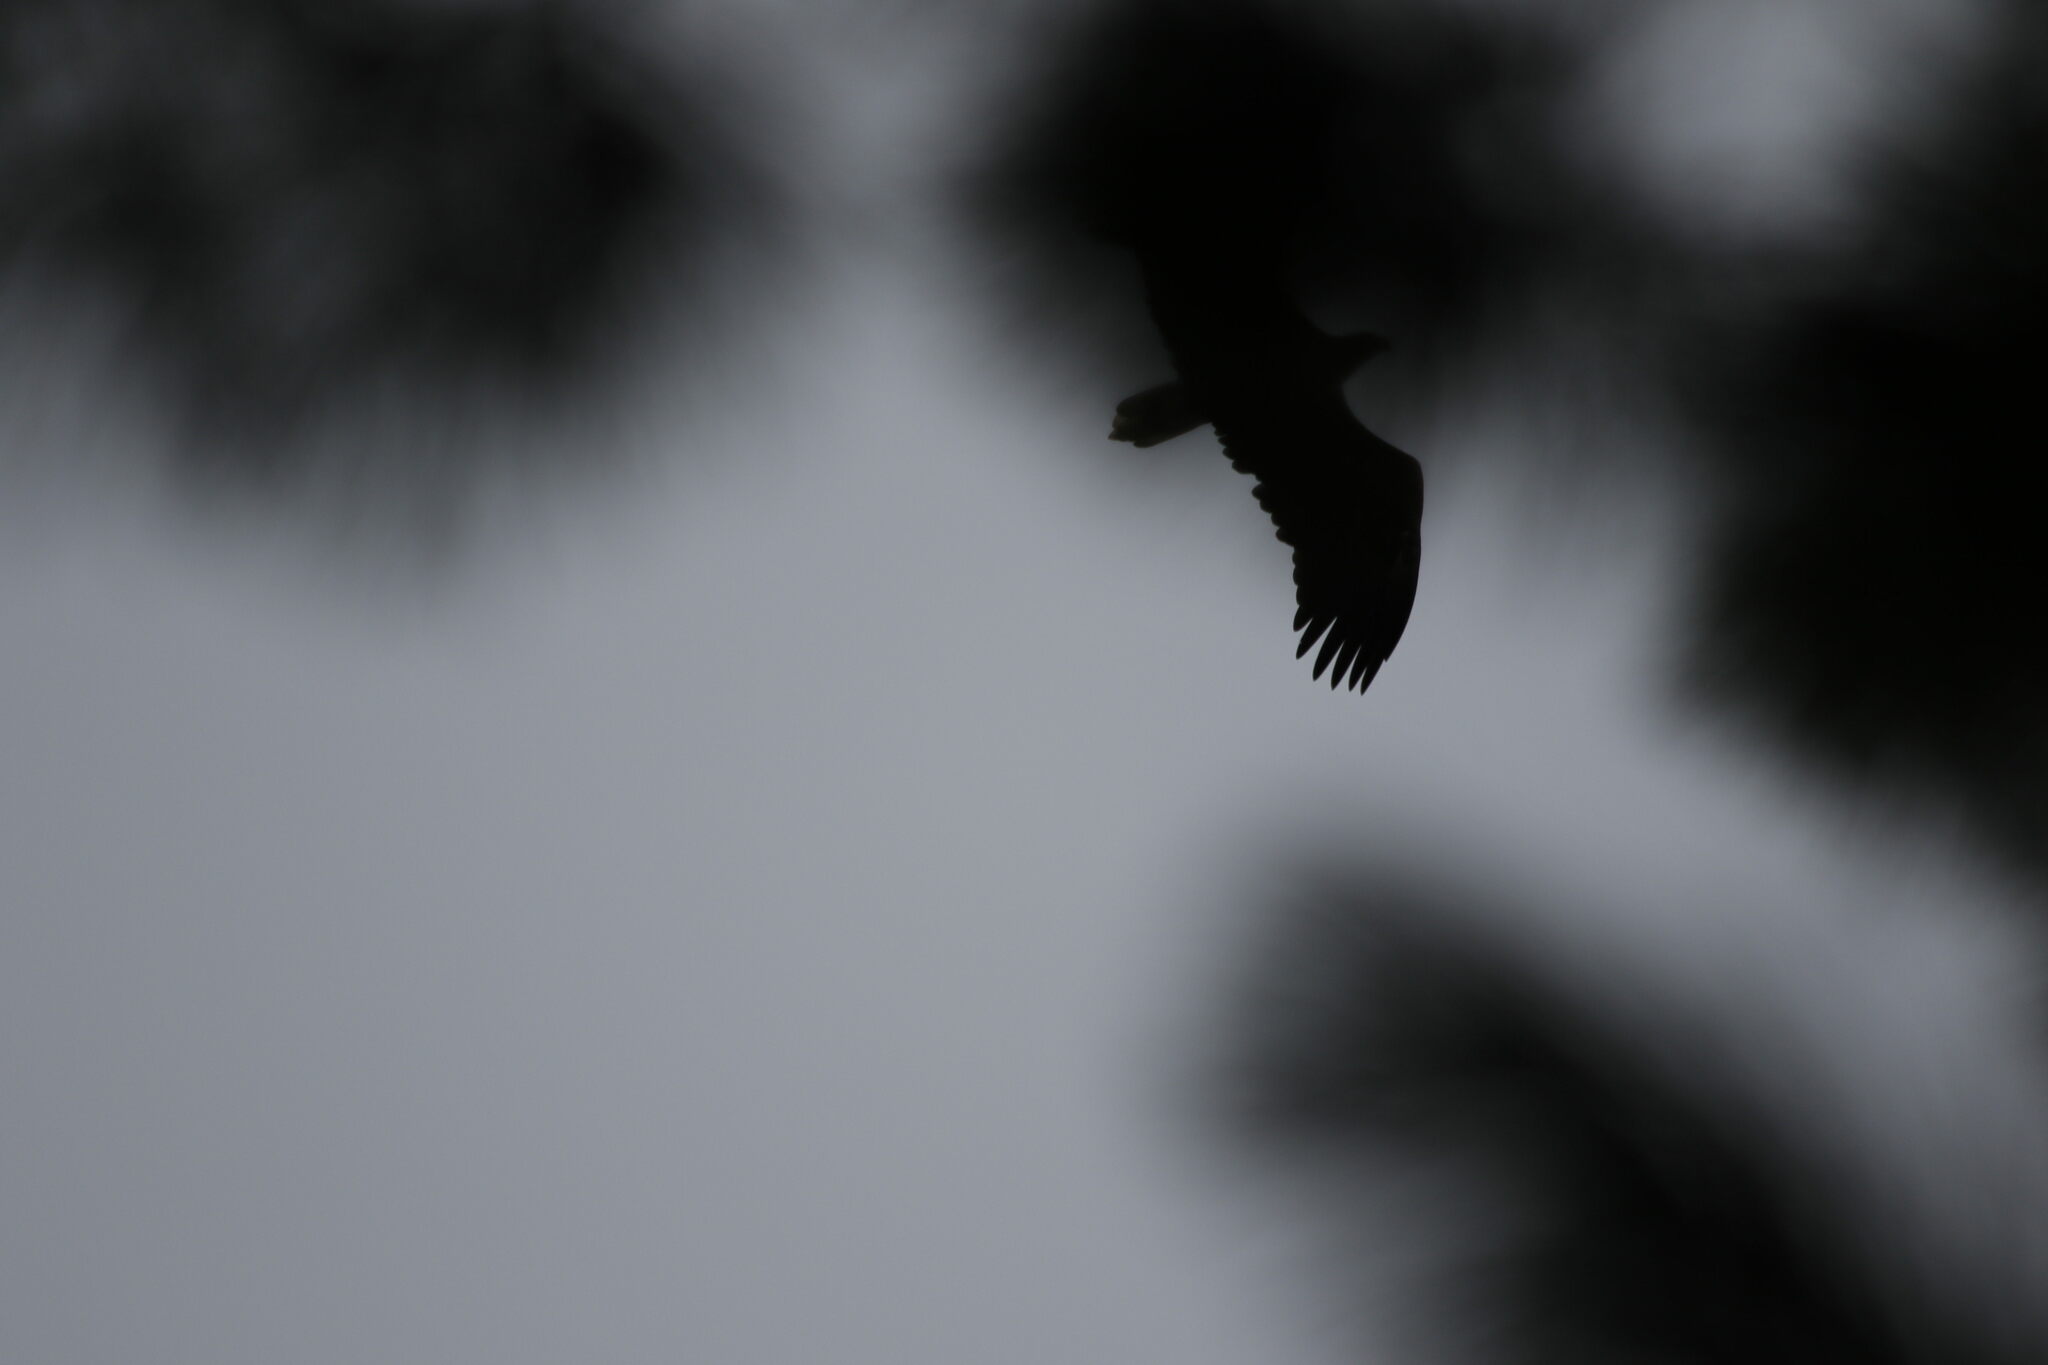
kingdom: Animalia
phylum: Chordata
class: Aves
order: Accipitriformes
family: Accipitridae
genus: Haliaeetus
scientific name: Haliaeetus albicilla
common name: White-tailed eagle
